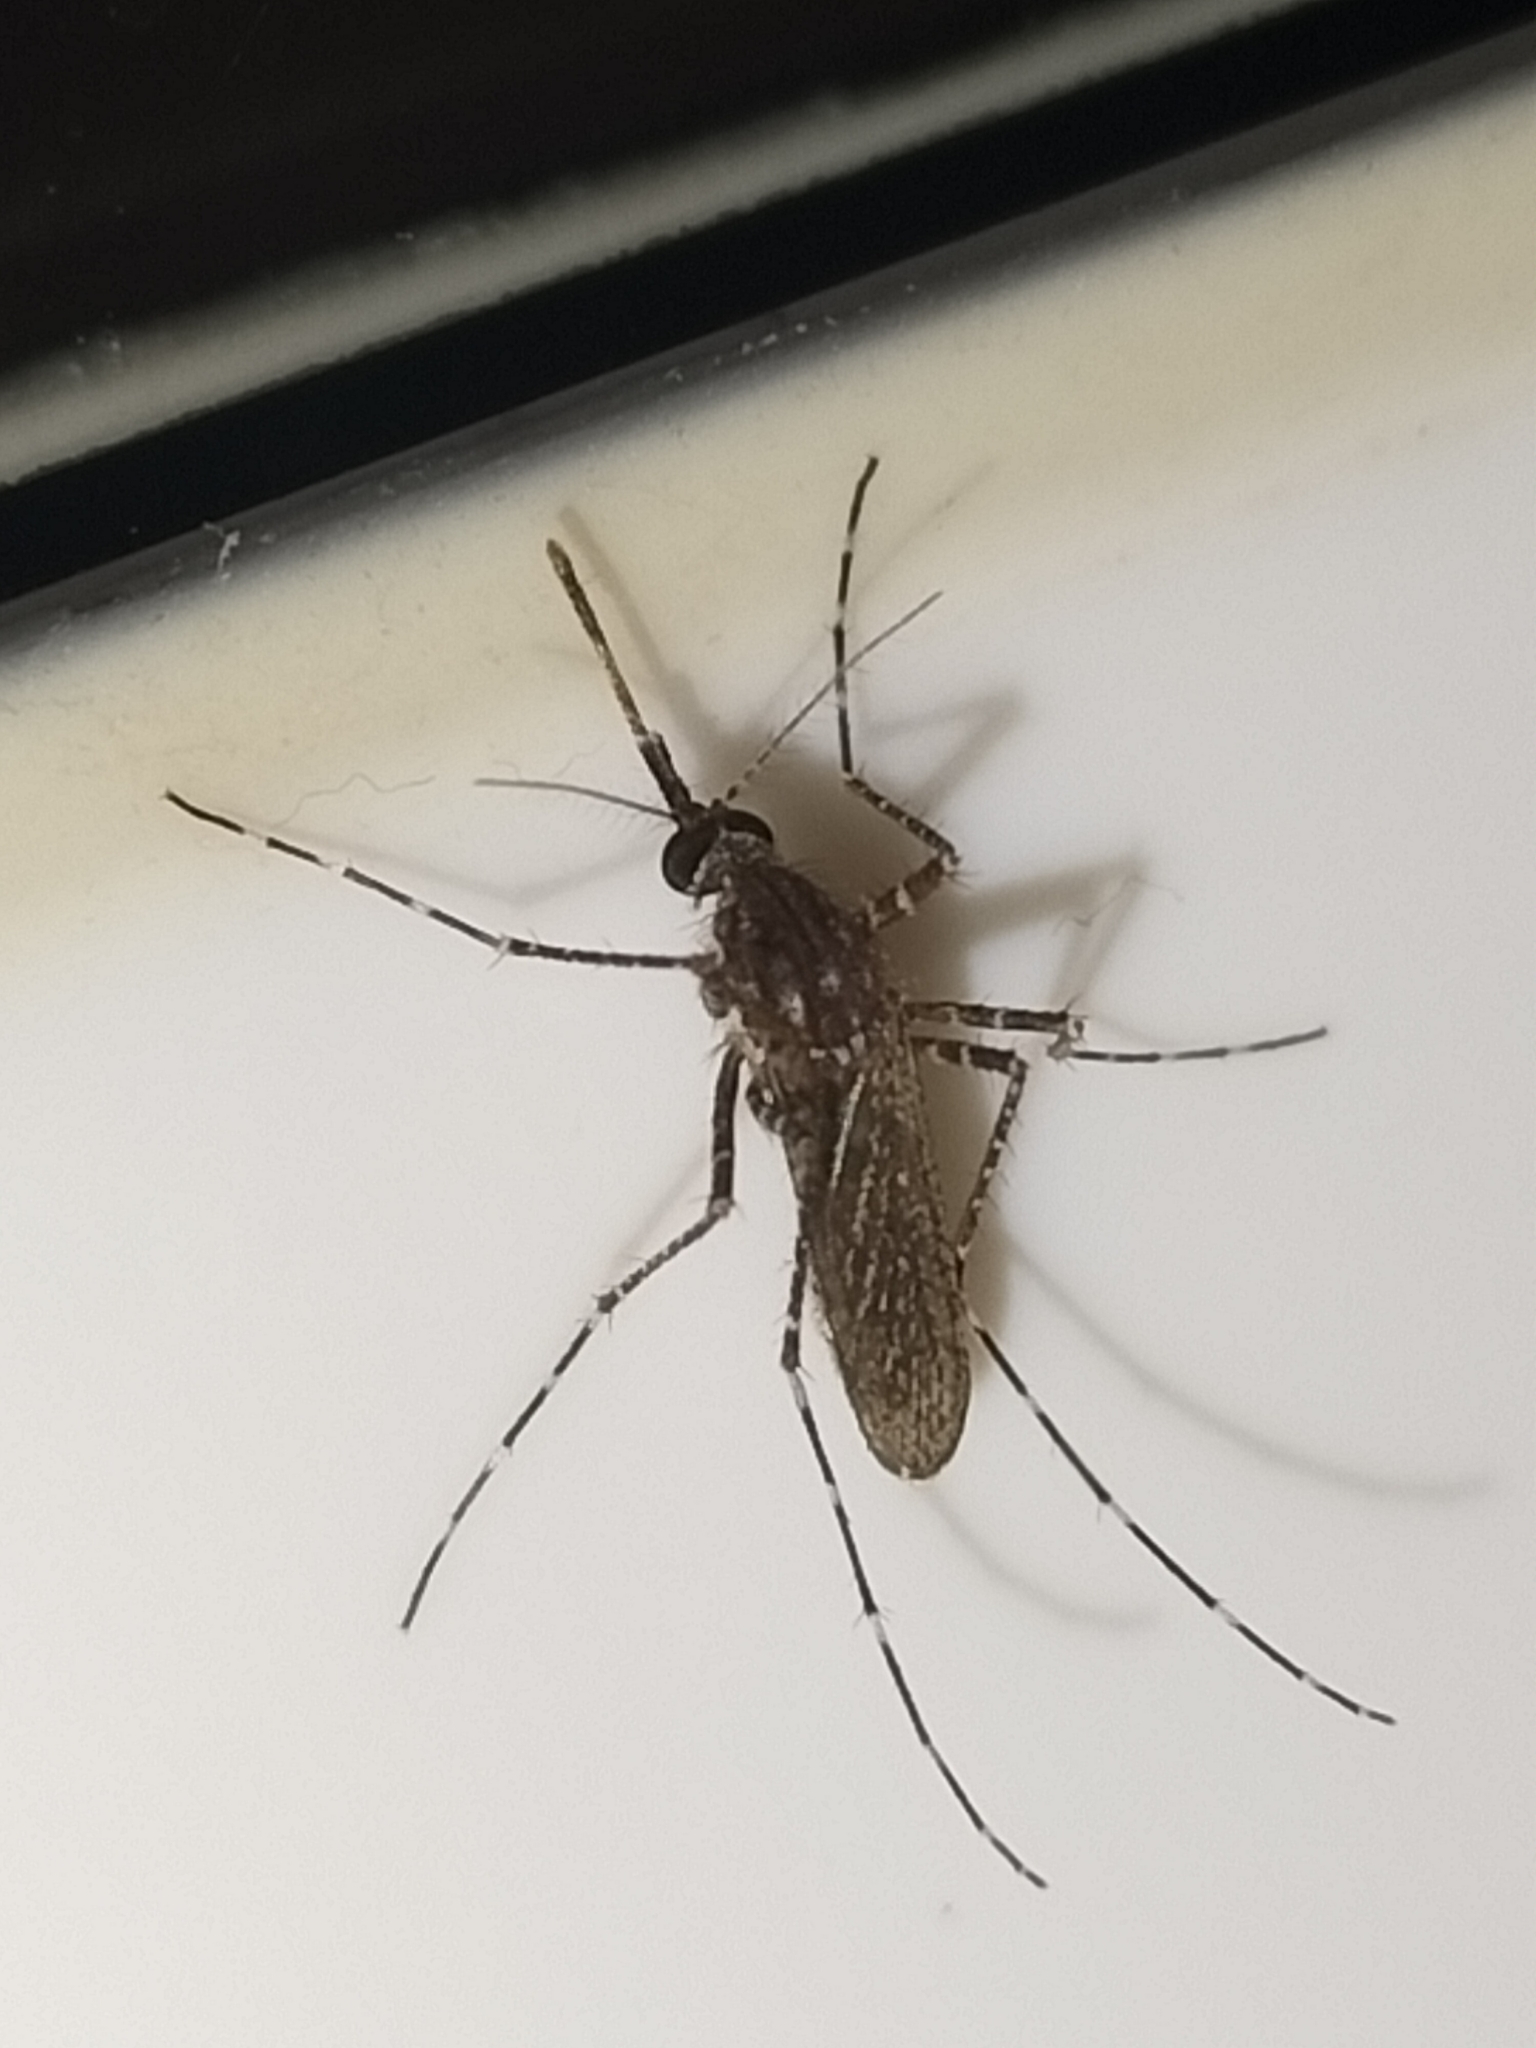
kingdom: Animalia
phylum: Arthropoda
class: Insecta
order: Diptera
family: Culicidae
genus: Mansonia
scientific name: Mansonia septempunctata
